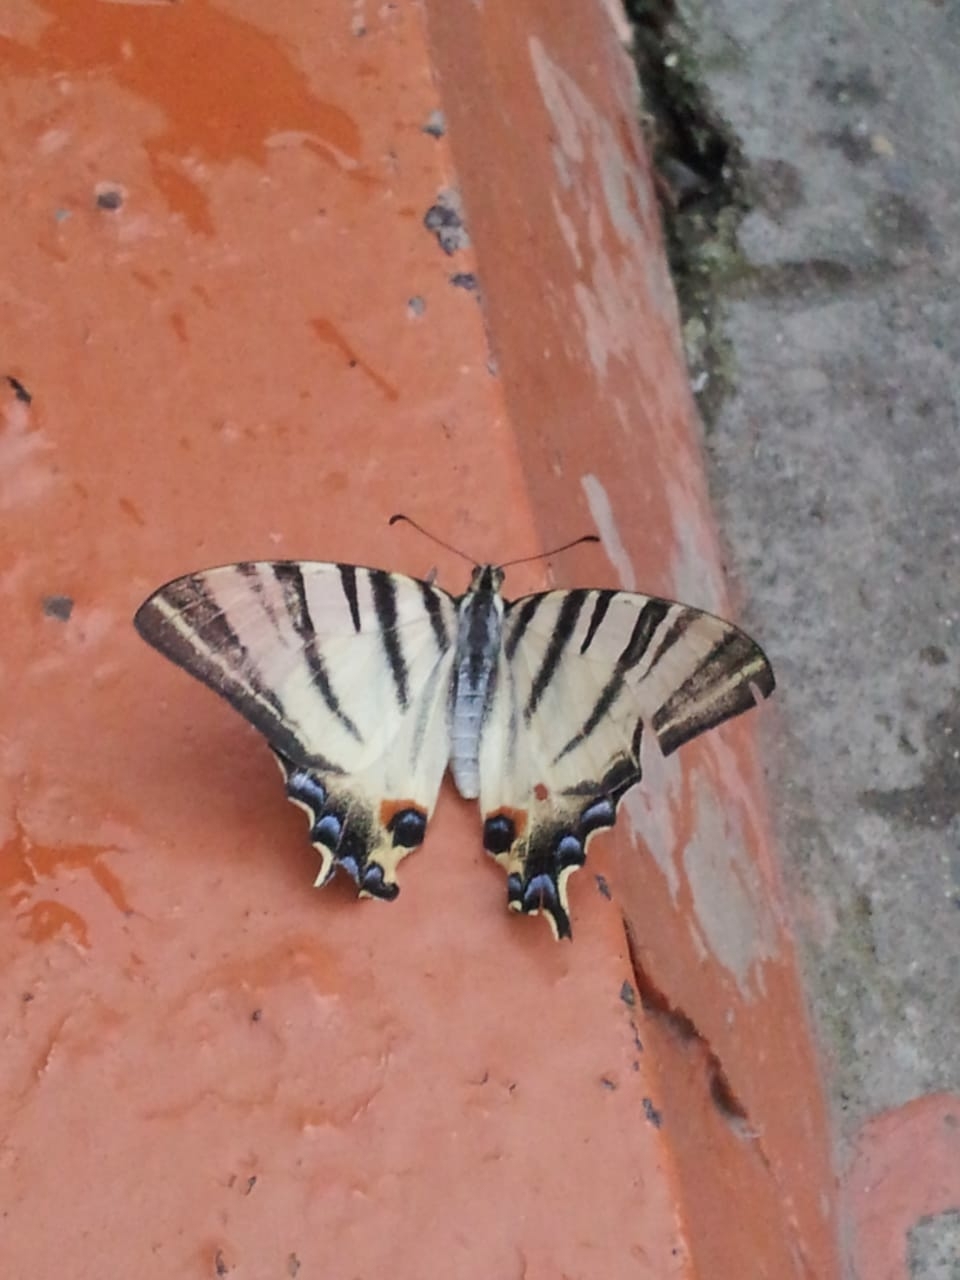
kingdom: Animalia
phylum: Arthropoda
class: Insecta
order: Lepidoptera
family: Papilionidae
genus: Iphiclides
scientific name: Iphiclides podalirius
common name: Scarce swallowtail
